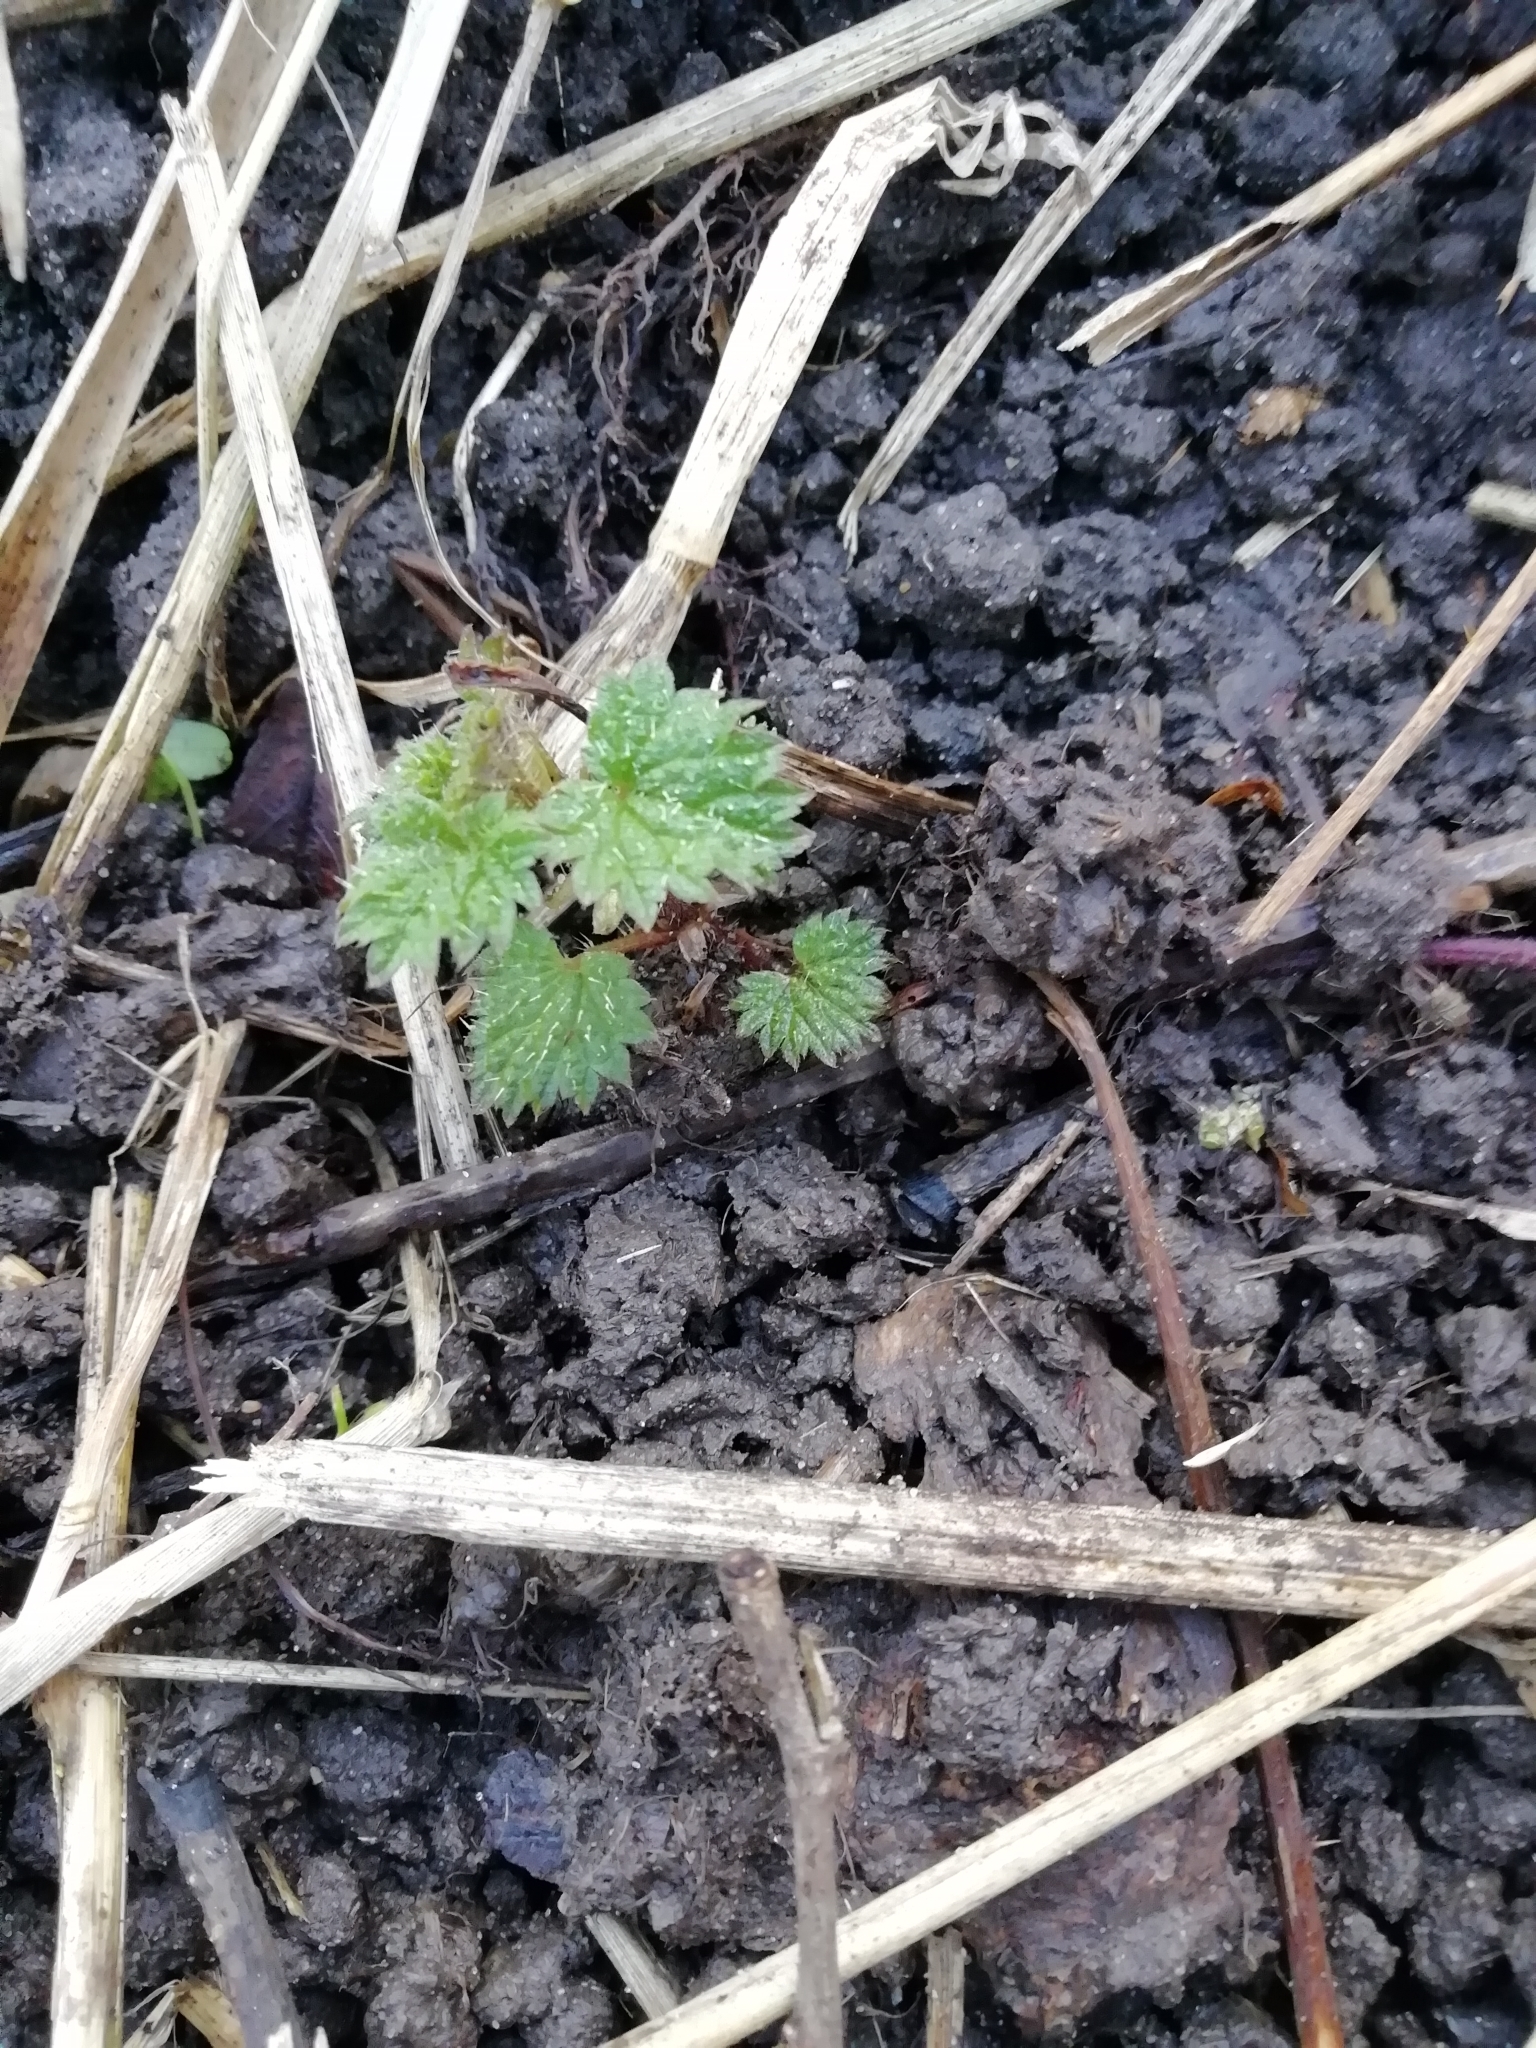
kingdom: Plantae
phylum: Tracheophyta
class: Magnoliopsida
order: Rosales
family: Urticaceae
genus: Urtica
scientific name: Urtica dioica
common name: Common nettle
